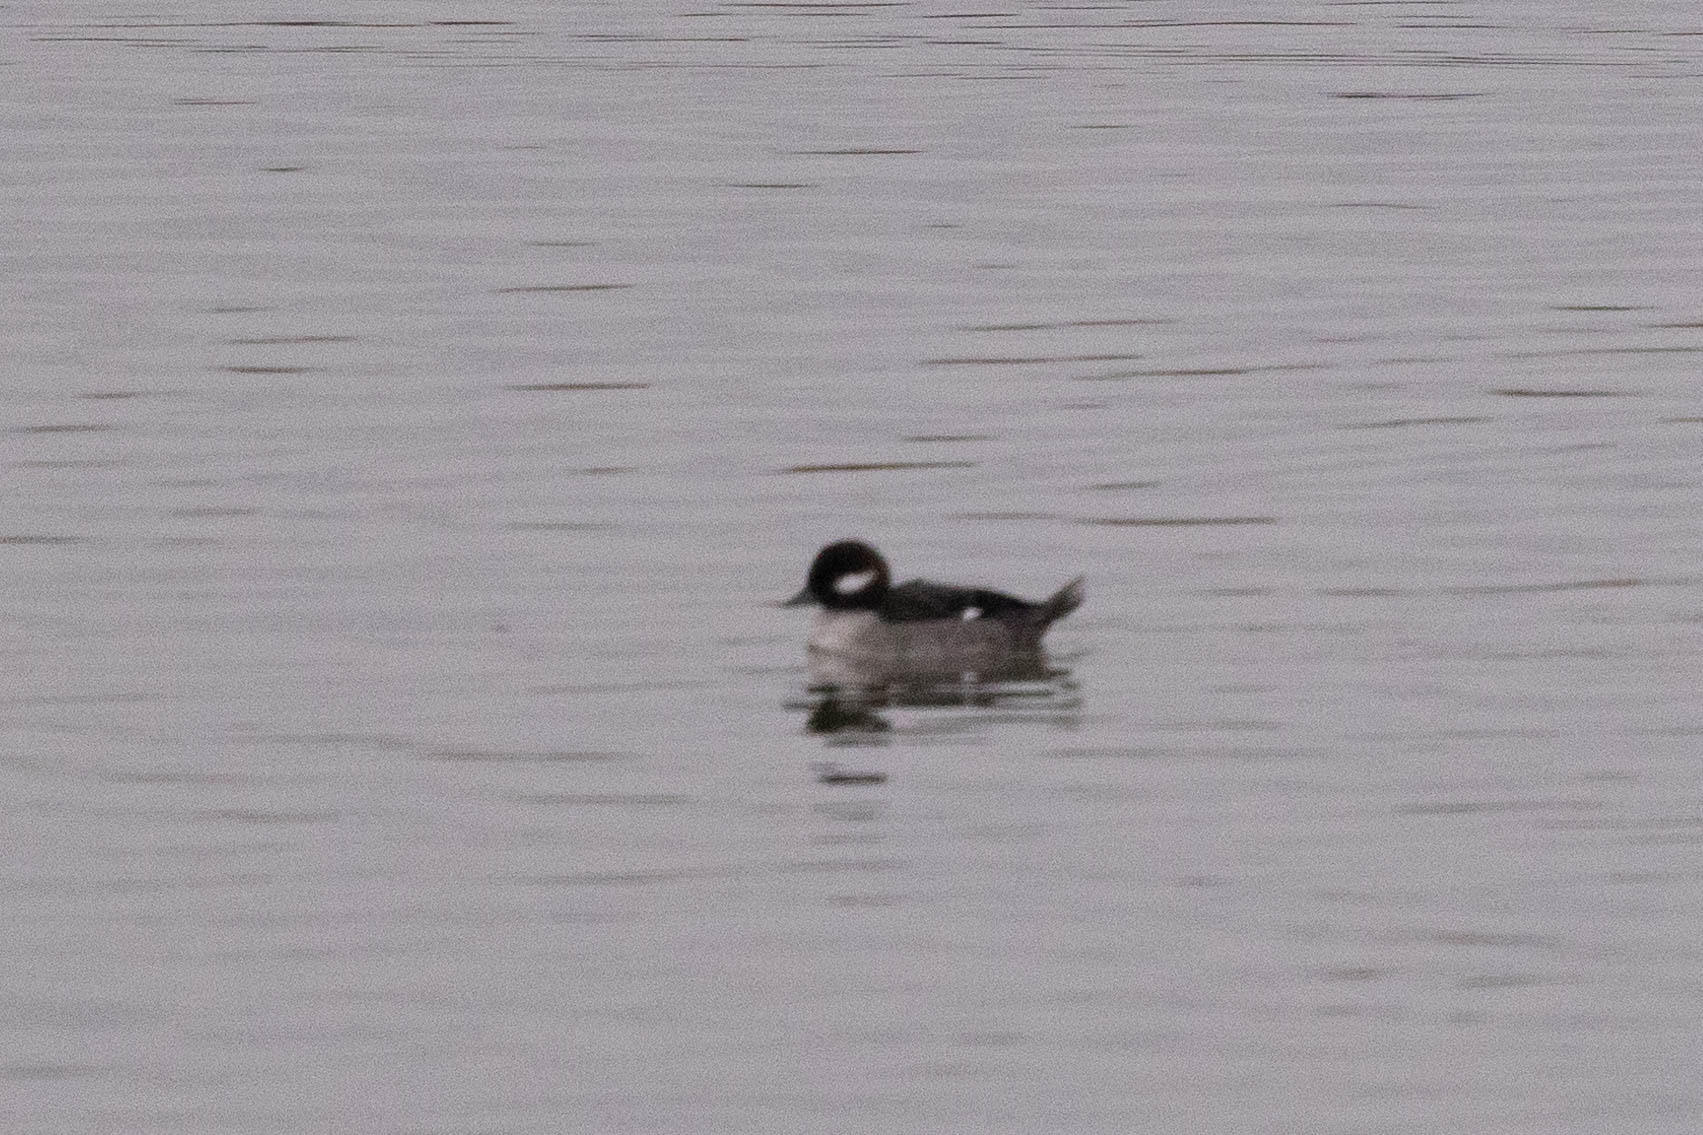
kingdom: Animalia
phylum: Chordata
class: Aves
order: Anseriformes
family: Anatidae
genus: Bucephala
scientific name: Bucephala albeola
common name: Bufflehead
